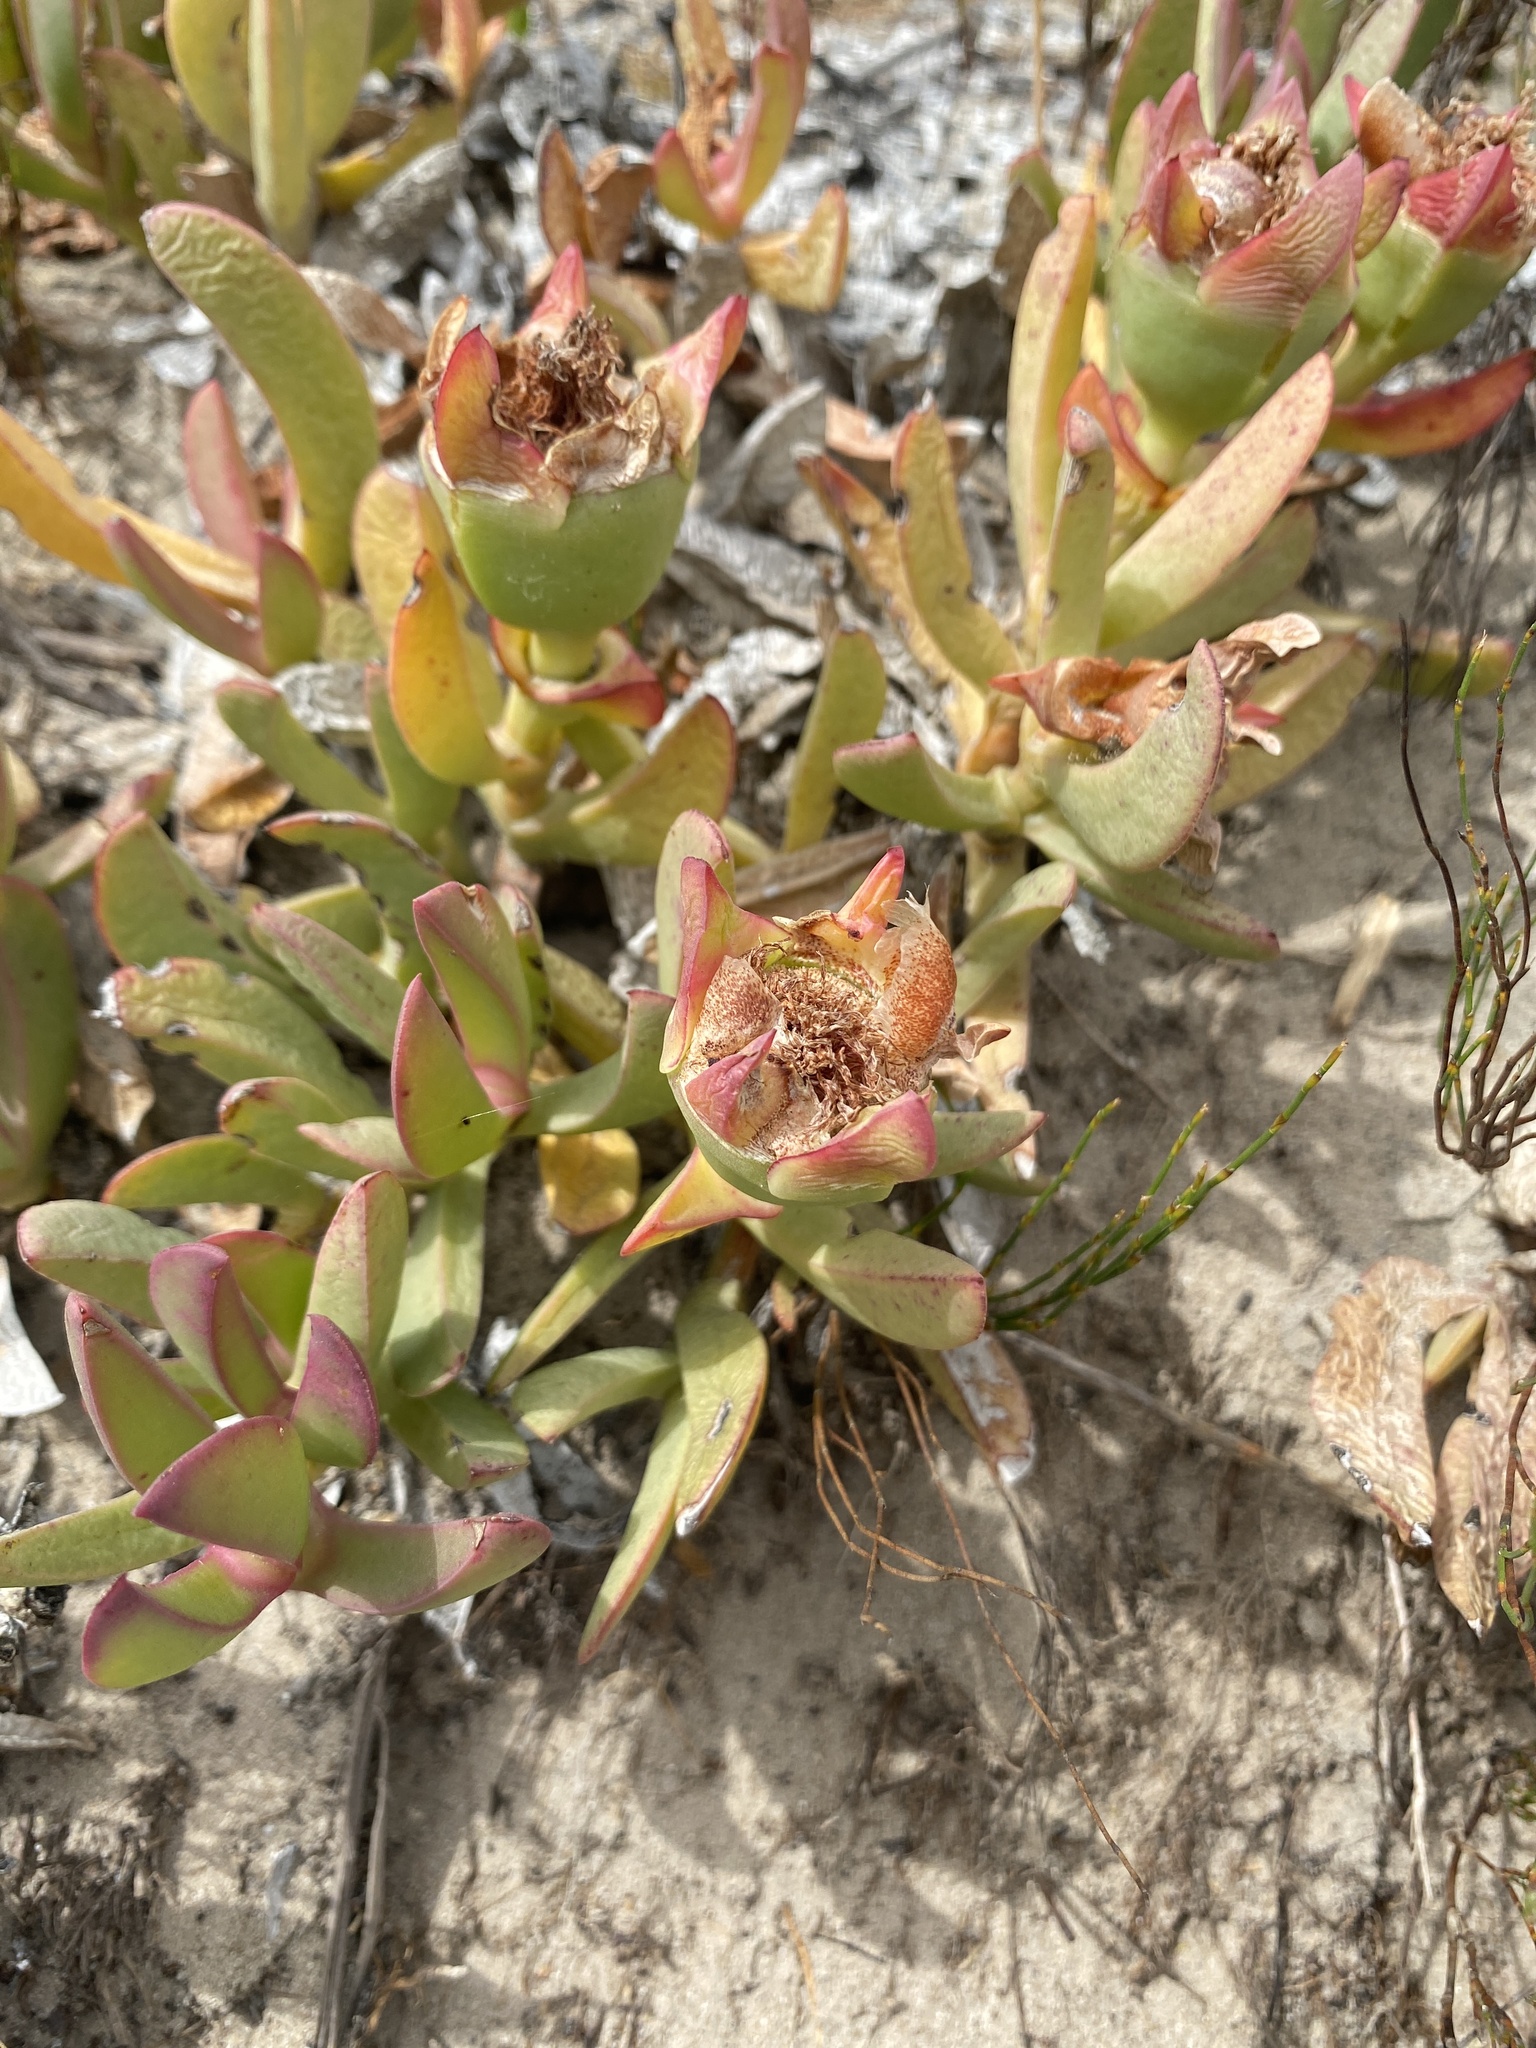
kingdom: Plantae
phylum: Tracheophyta
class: Magnoliopsida
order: Caryophyllales
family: Aizoaceae
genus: Carpobrotus
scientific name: Carpobrotus acinaciformis
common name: Sally-my-handsome
